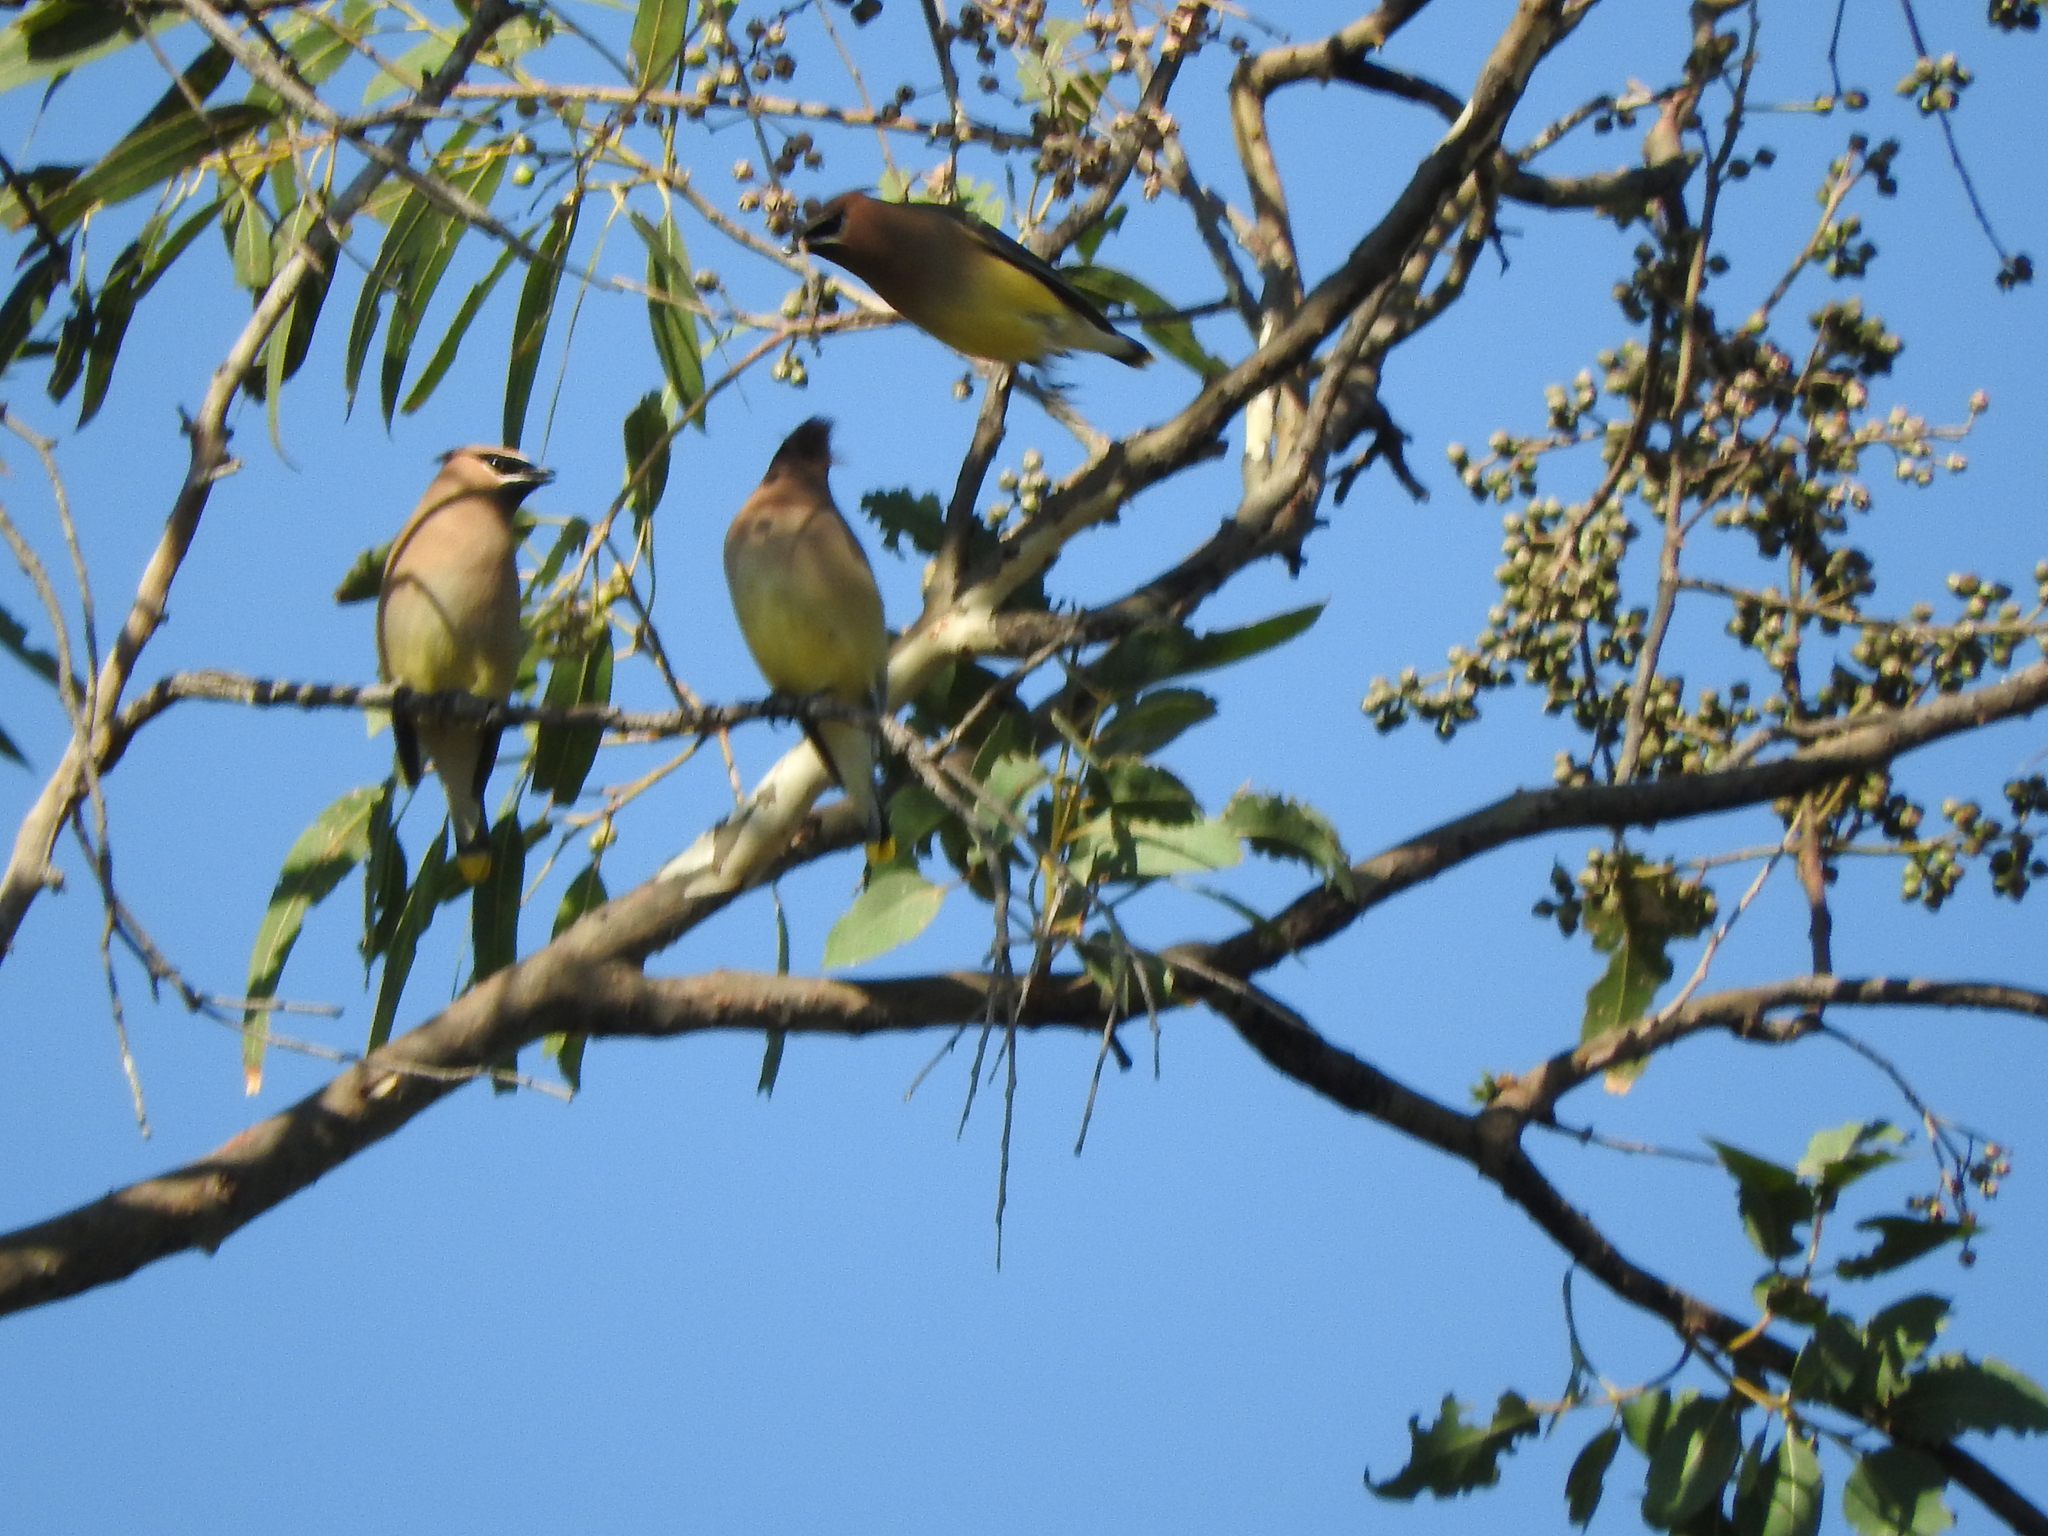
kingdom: Animalia
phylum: Chordata
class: Aves
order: Passeriformes
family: Bombycillidae
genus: Bombycilla
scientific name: Bombycilla cedrorum
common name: Cedar waxwing
